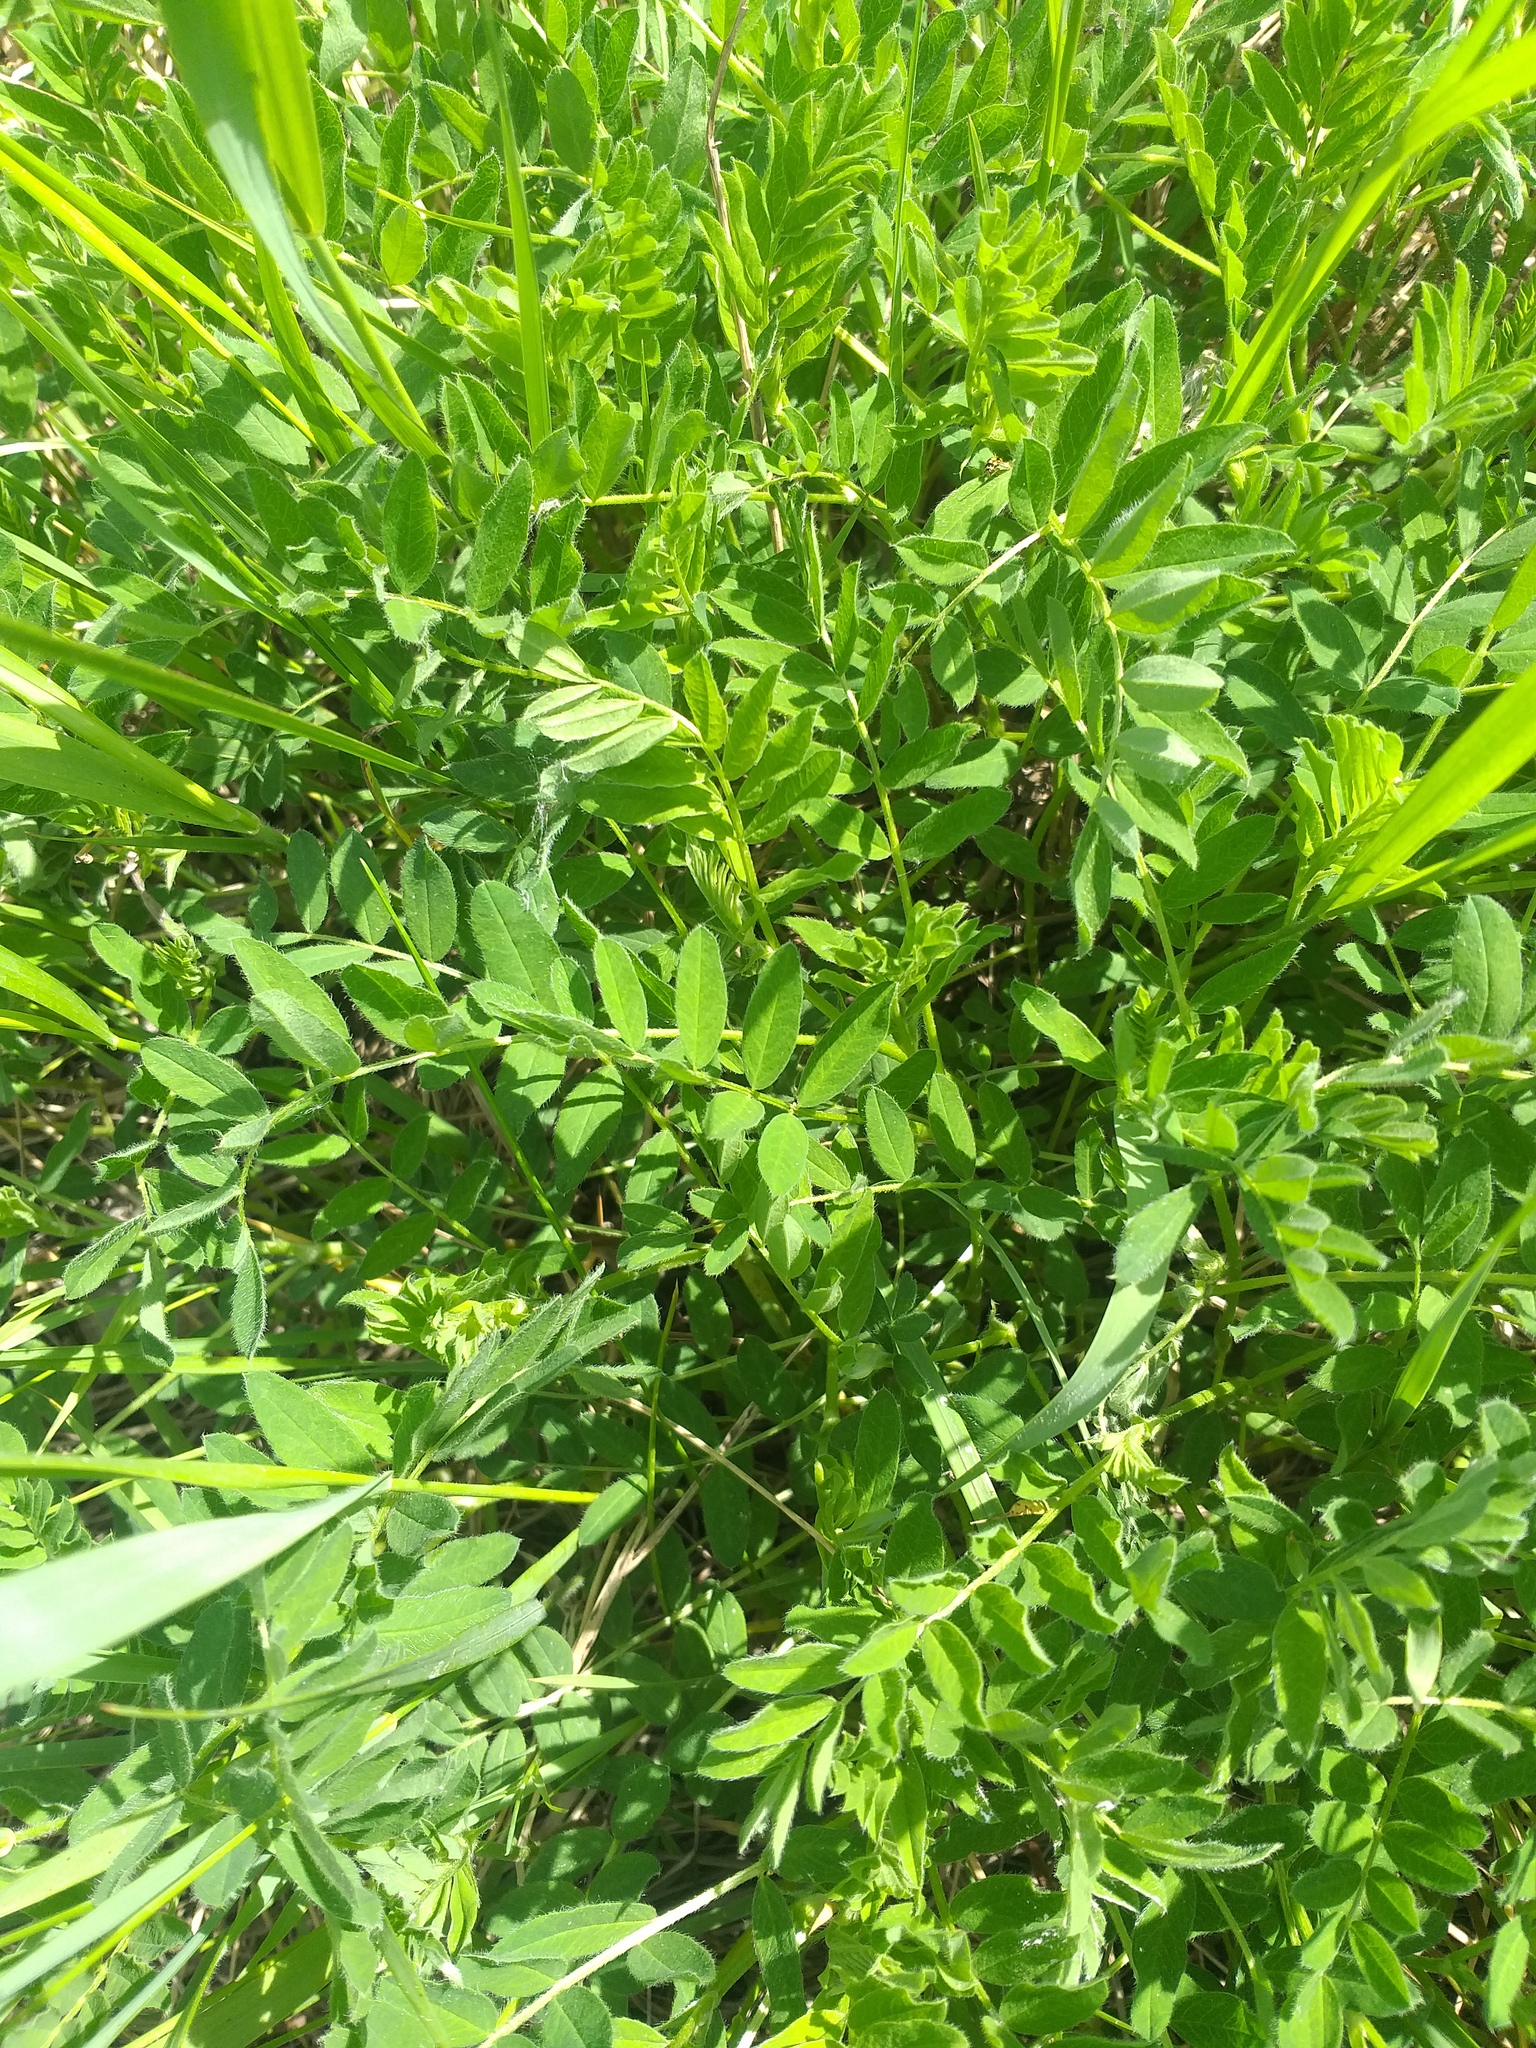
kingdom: Plantae
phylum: Tracheophyta
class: Magnoliopsida
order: Fabales
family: Fabaceae
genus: Astragalus
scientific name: Astragalus cicer
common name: Chick-pea milk-vetch
